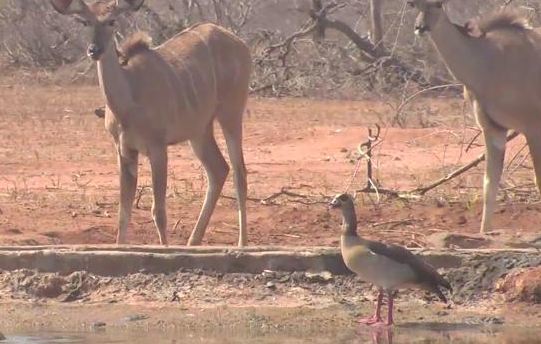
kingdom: Animalia
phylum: Chordata
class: Aves
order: Anseriformes
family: Anatidae
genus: Alopochen
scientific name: Alopochen aegyptiaca
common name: Egyptian goose
